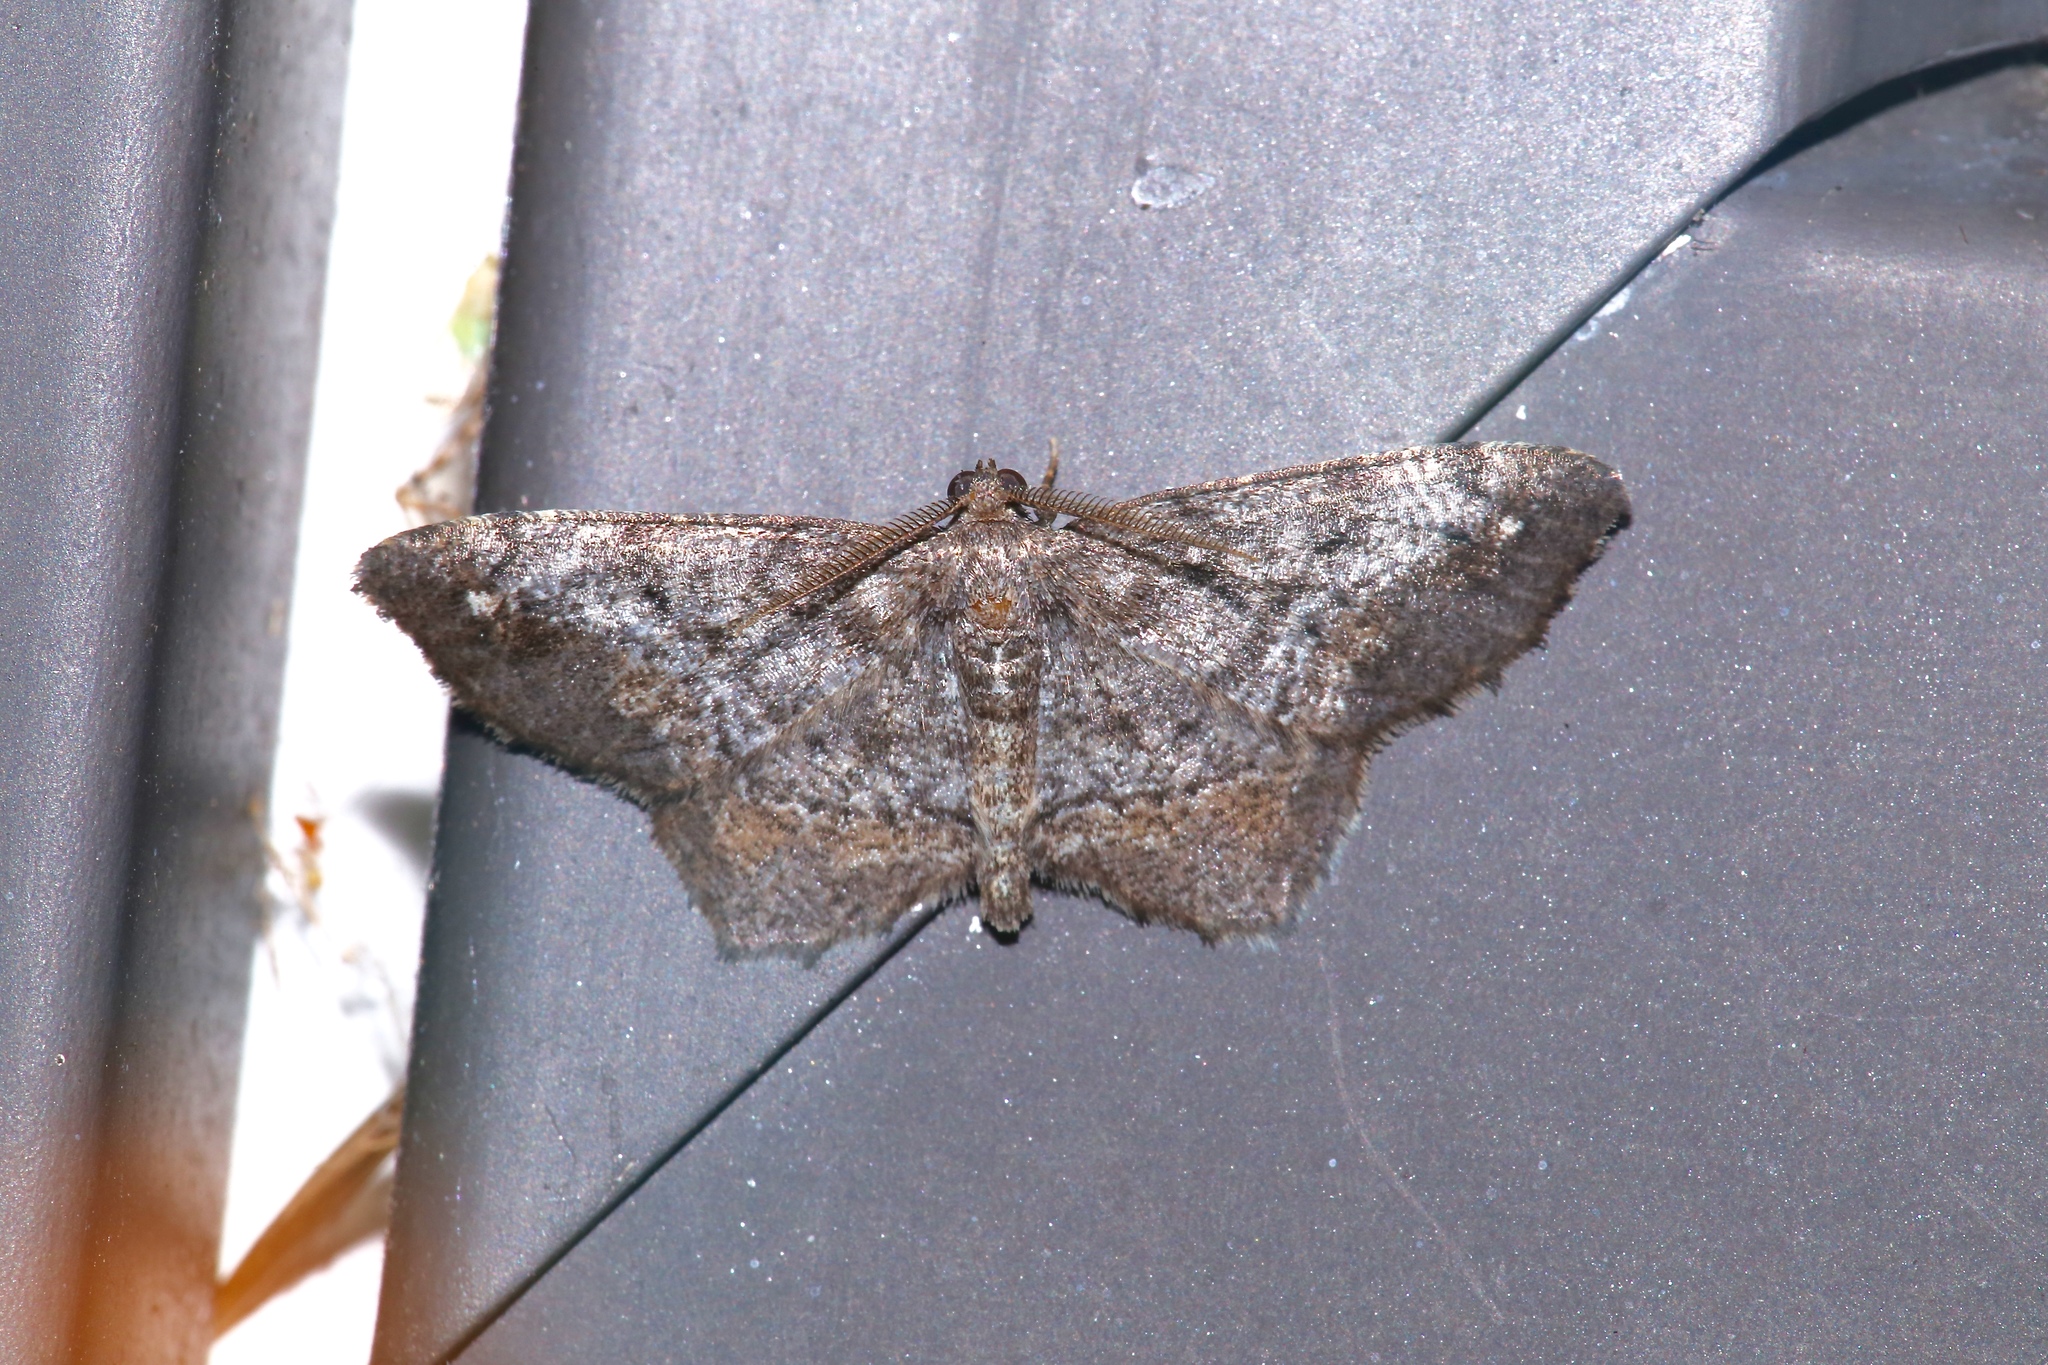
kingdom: Animalia
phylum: Arthropoda
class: Insecta
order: Lepidoptera
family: Geometridae
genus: Hypagyrtis
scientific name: Hypagyrtis unipunctata
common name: One-spotted variant
